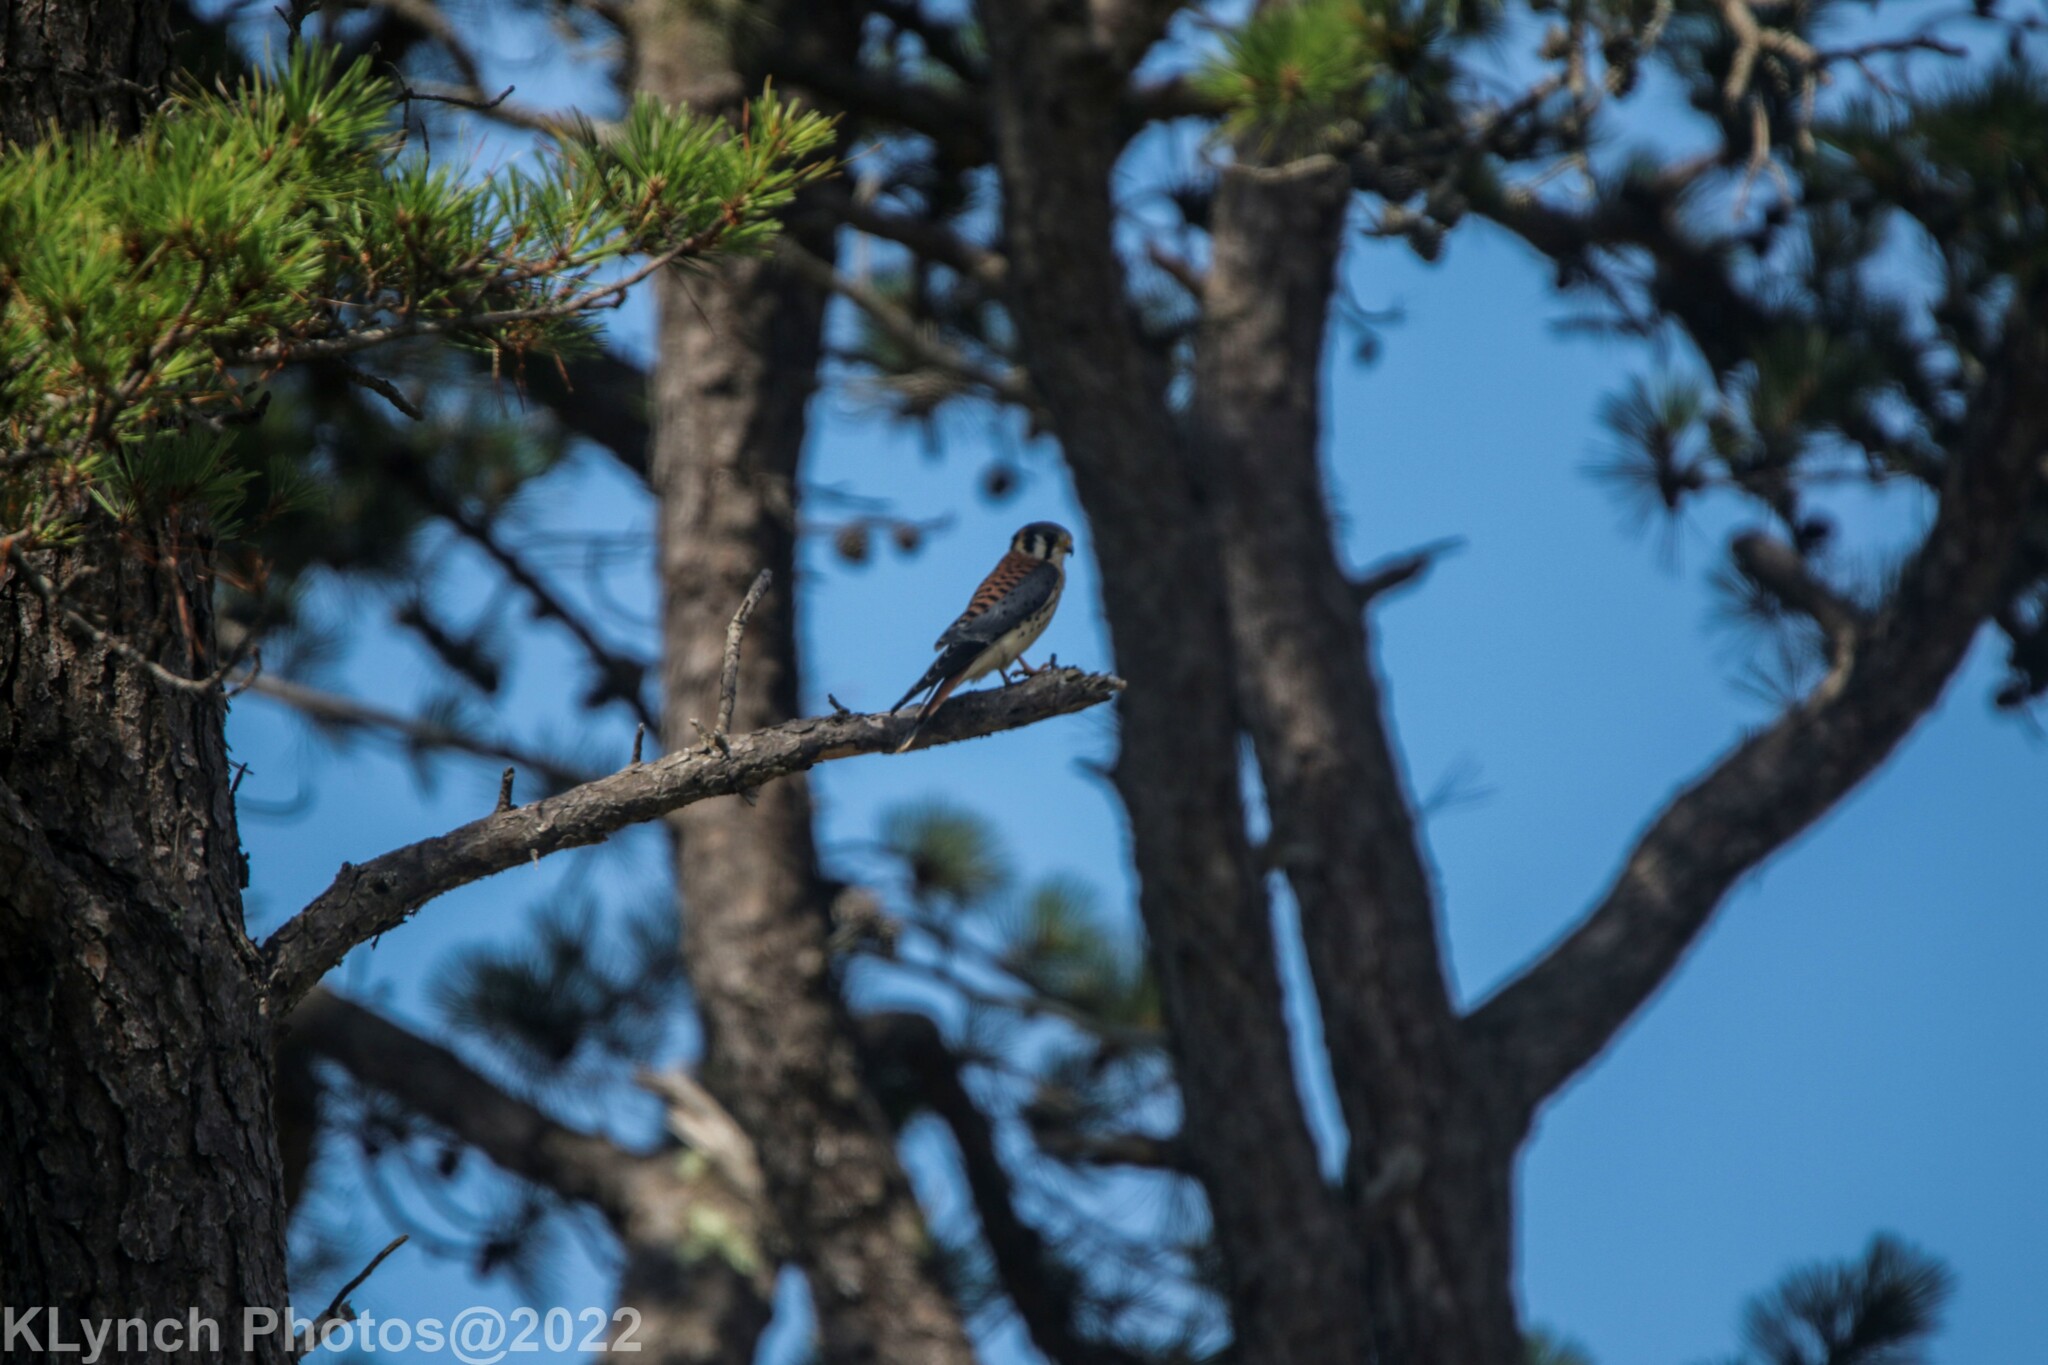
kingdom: Animalia
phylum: Chordata
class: Aves
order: Falconiformes
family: Falconidae
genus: Falco
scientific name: Falco sparverius
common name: American kestrel
